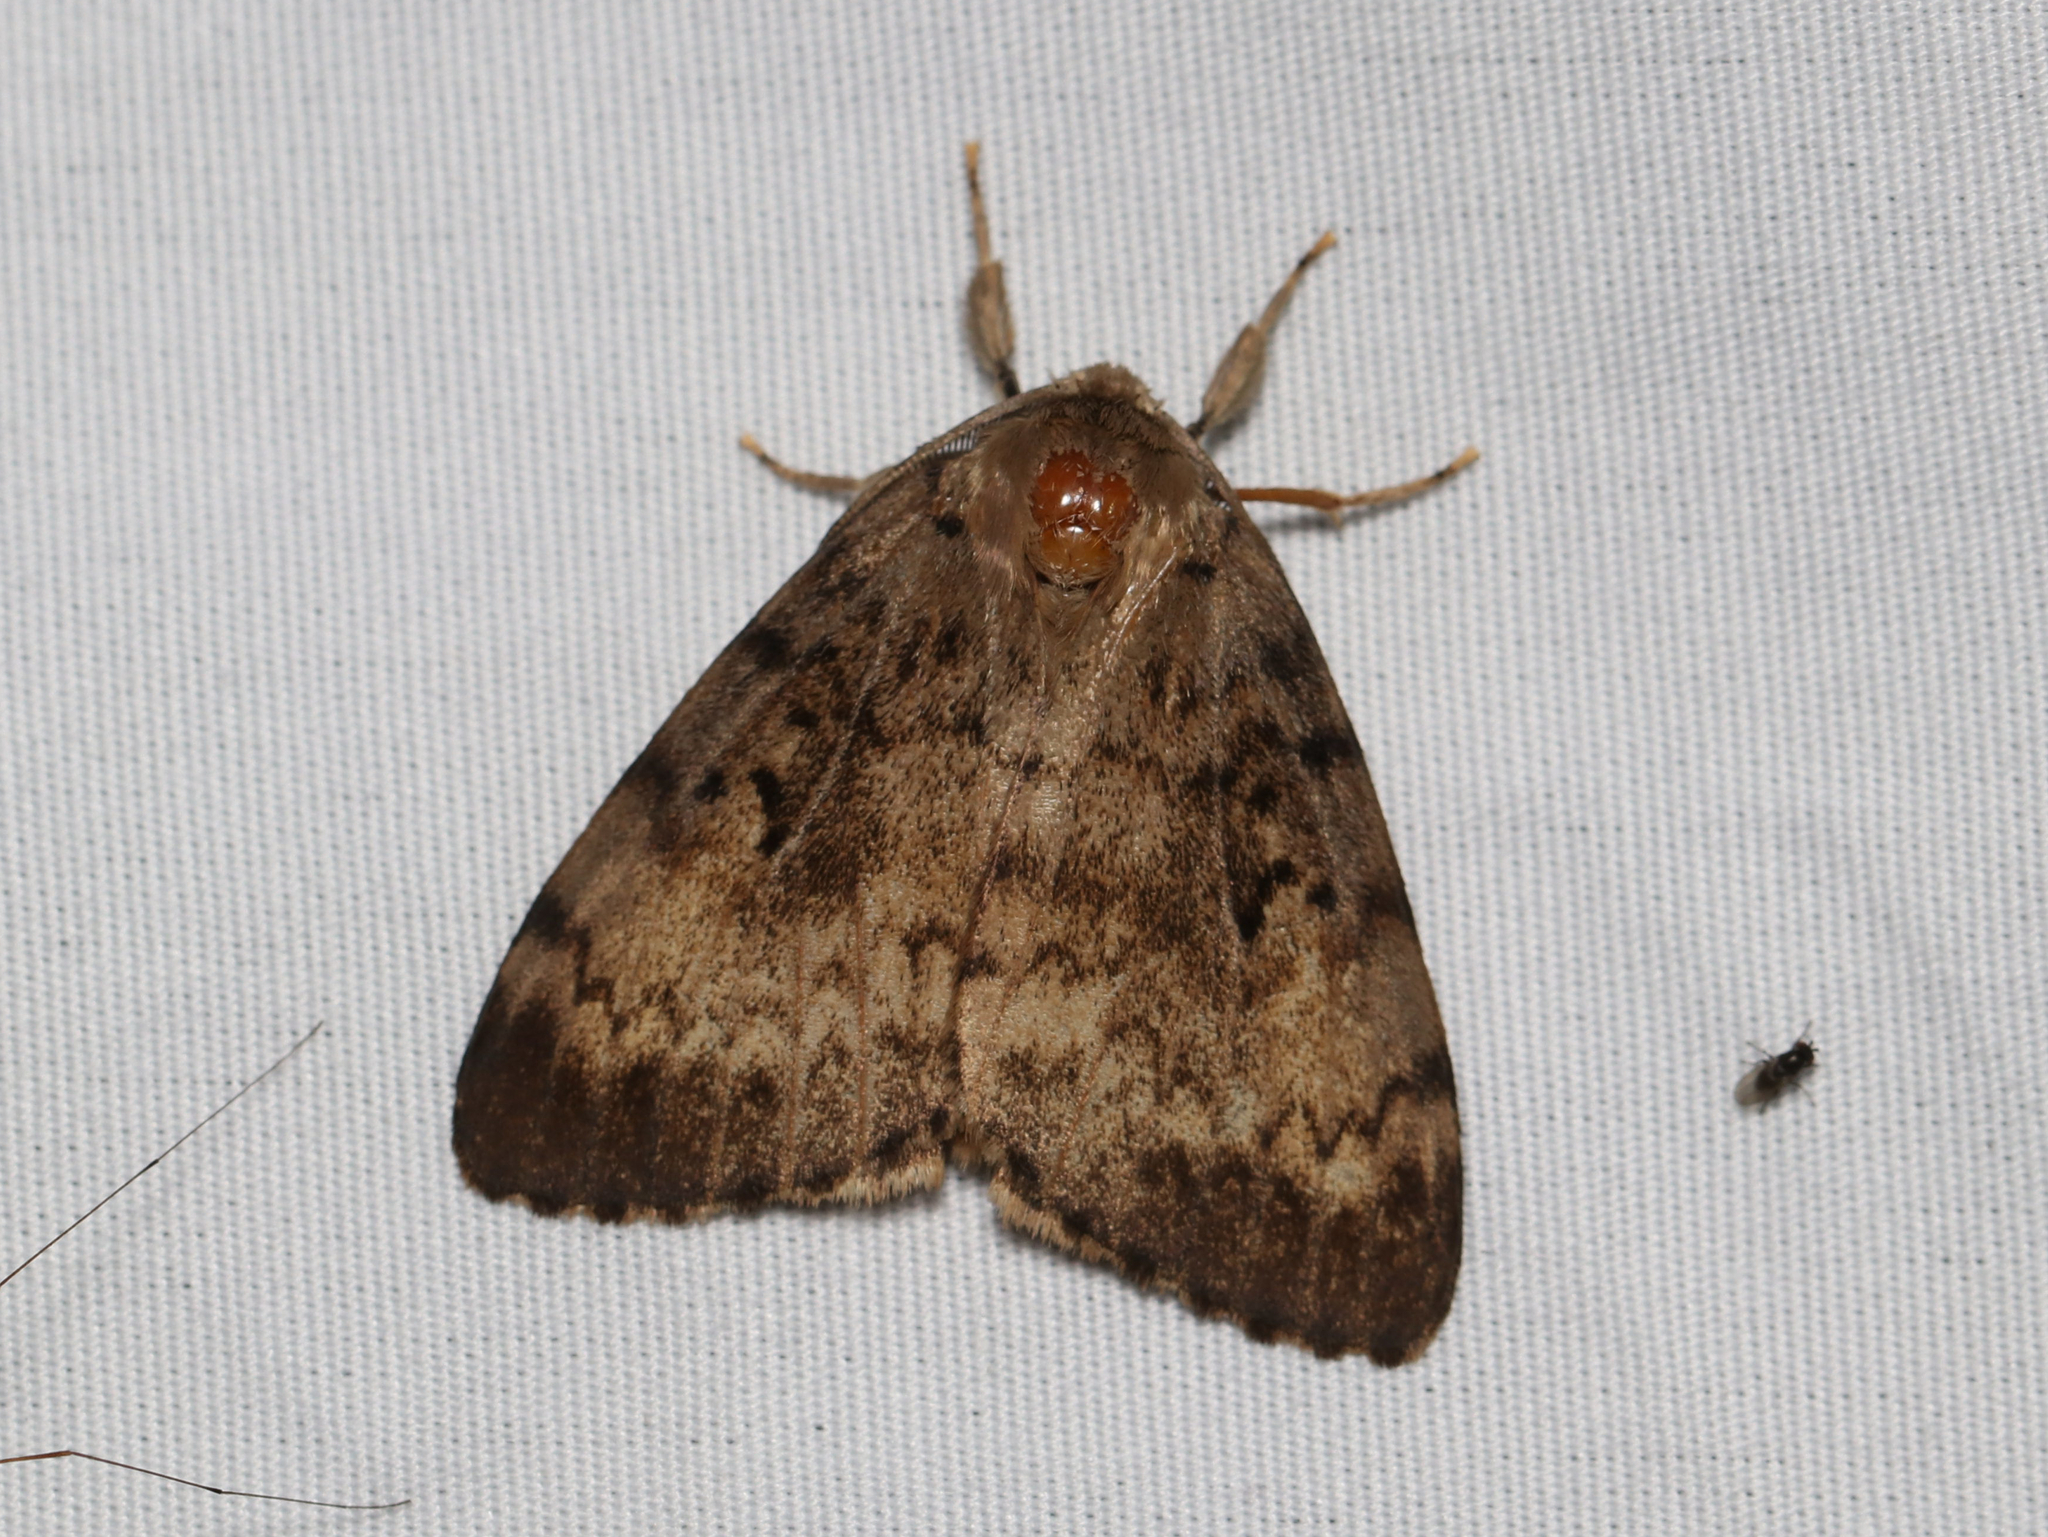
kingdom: Animalia
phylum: Arthropoda
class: Insecta
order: Lepidoptera
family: Erebidae
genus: Lymantria
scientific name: Lymantria dispar
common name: Gypsy moth
